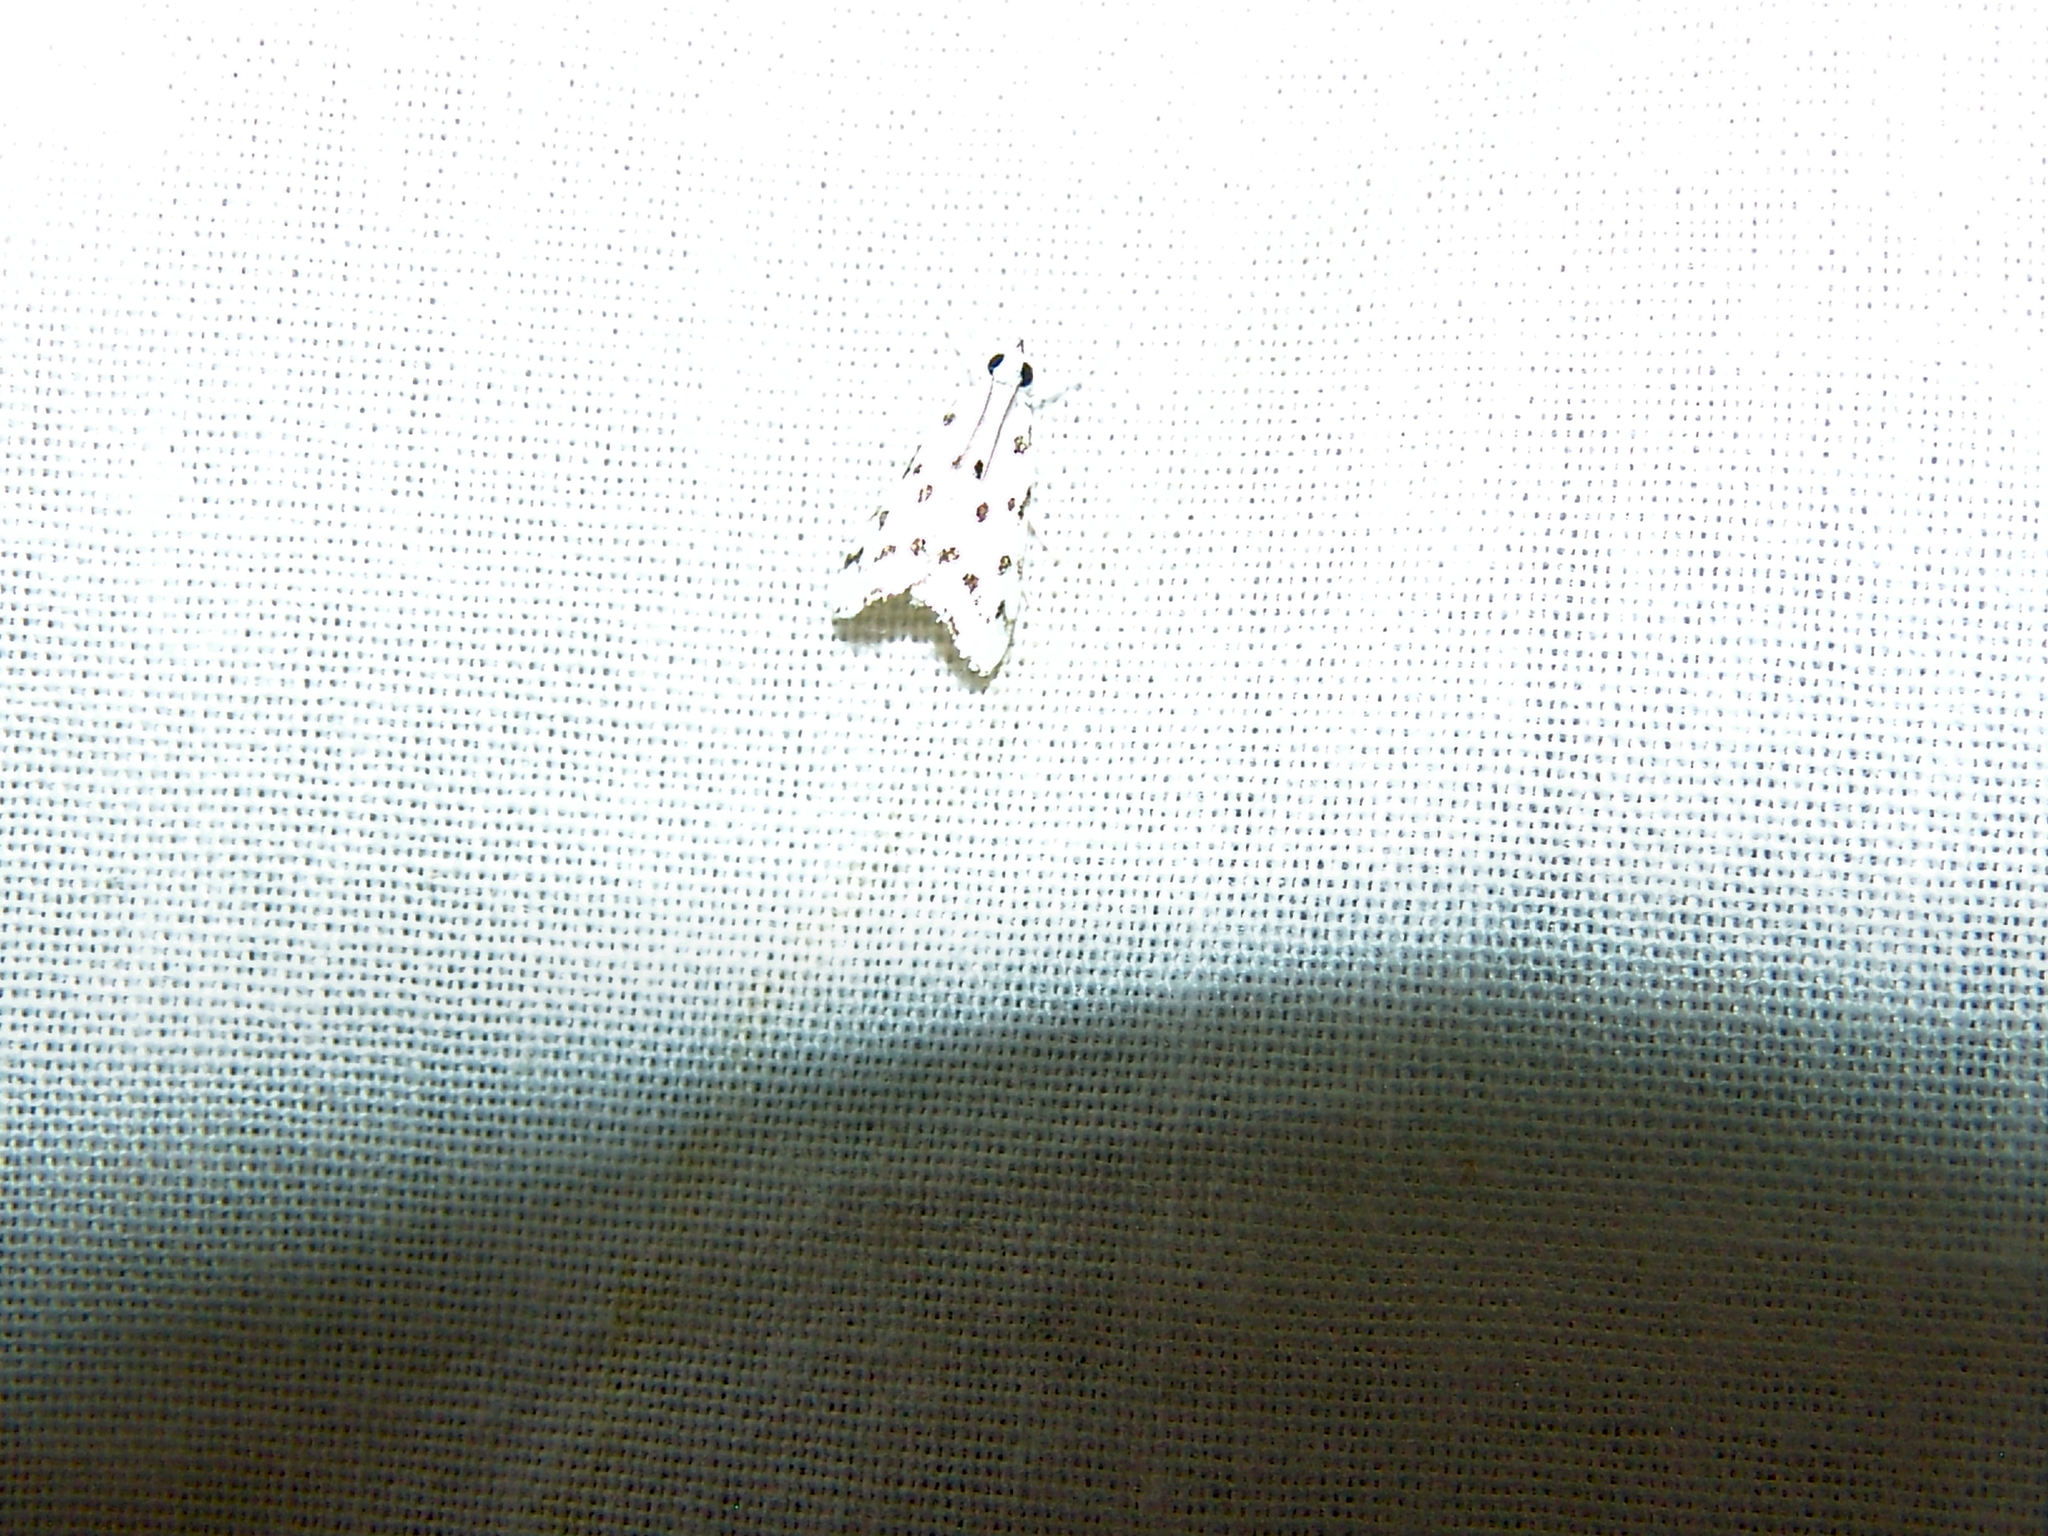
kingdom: Animalia
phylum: Arthropoda
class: Insecta
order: Lepidoptera
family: Crambidae
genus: Eustixia
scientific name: Eustixia pupula
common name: American cabbage pearl
